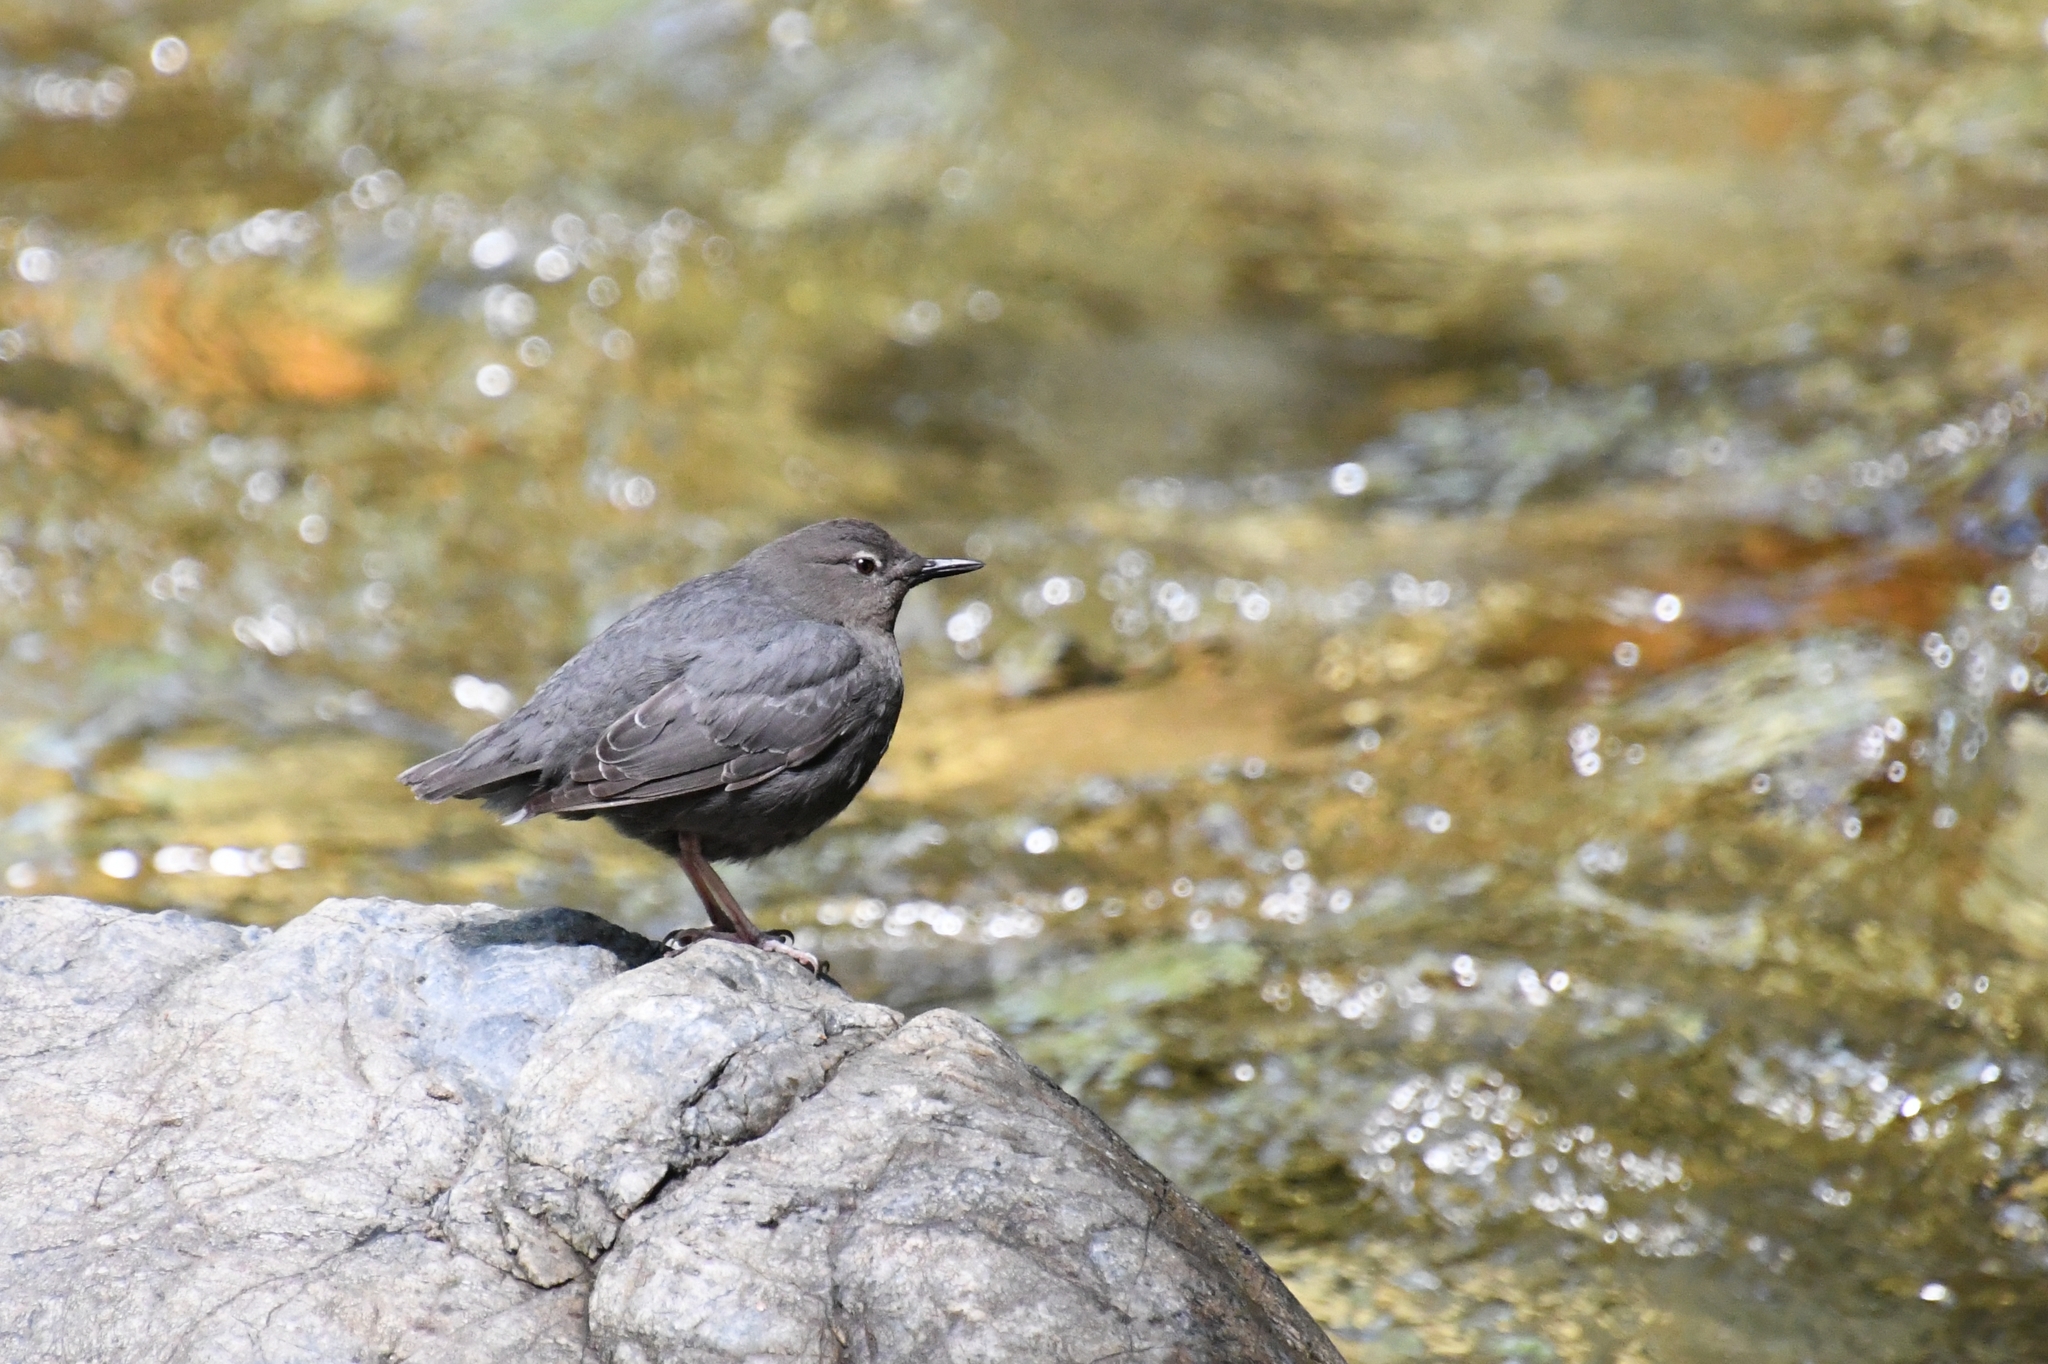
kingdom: Animalia
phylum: Chordata
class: Aves
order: Passeriformes
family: Cinclidae
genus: Cinclus
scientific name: Cinclus mexicanus
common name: American dipper
